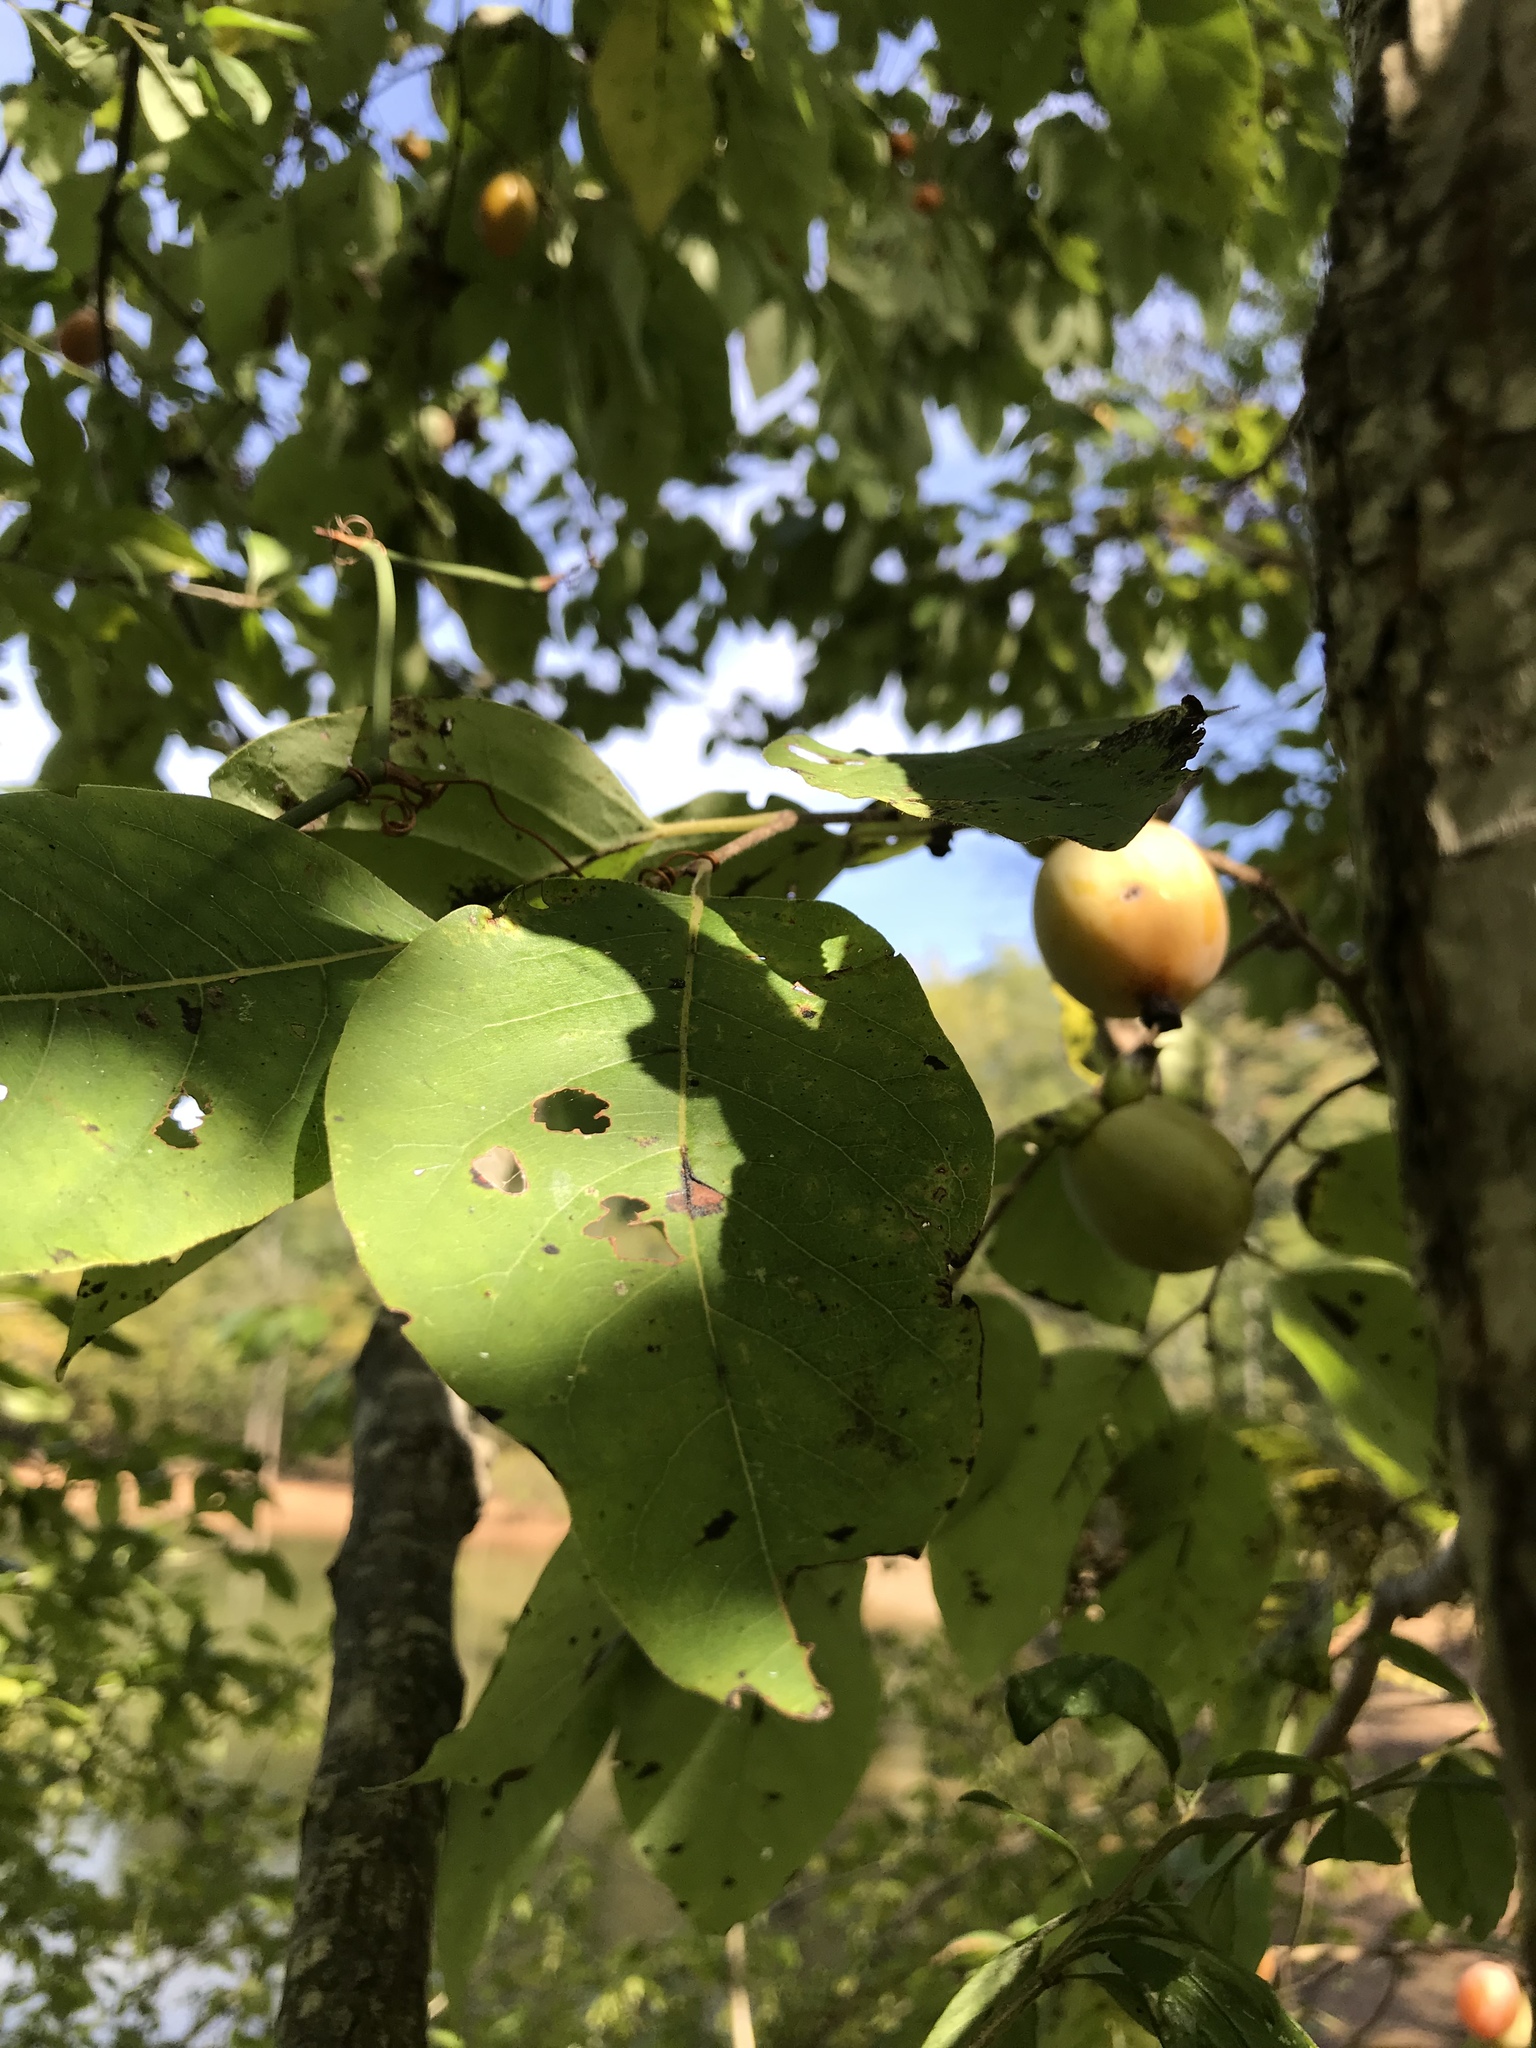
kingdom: Plantae
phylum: Tracheophyta
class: Magnoliopsida
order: Ericales
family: Ebenaceae
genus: Diospyros
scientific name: Diospyros virginiana
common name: Persimmon
